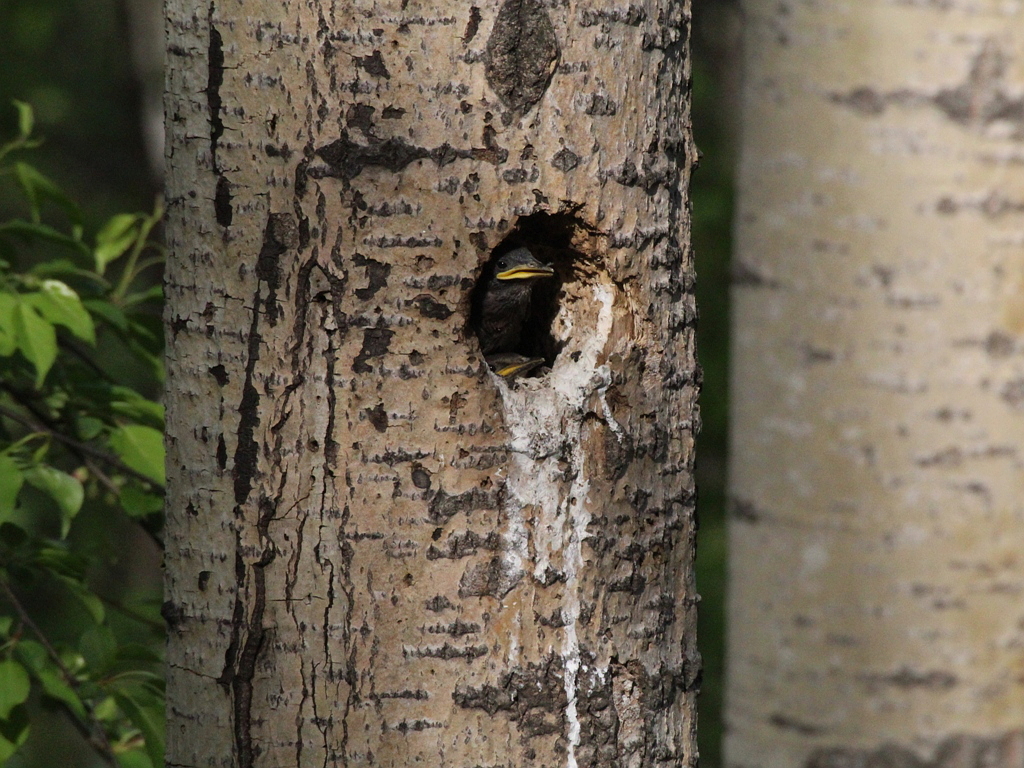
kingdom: Animalia
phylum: Chordata
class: Aves
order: Passeriformes
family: Sturnidae
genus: Sturnus
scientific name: Sturnus vulgaris
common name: Common starling
